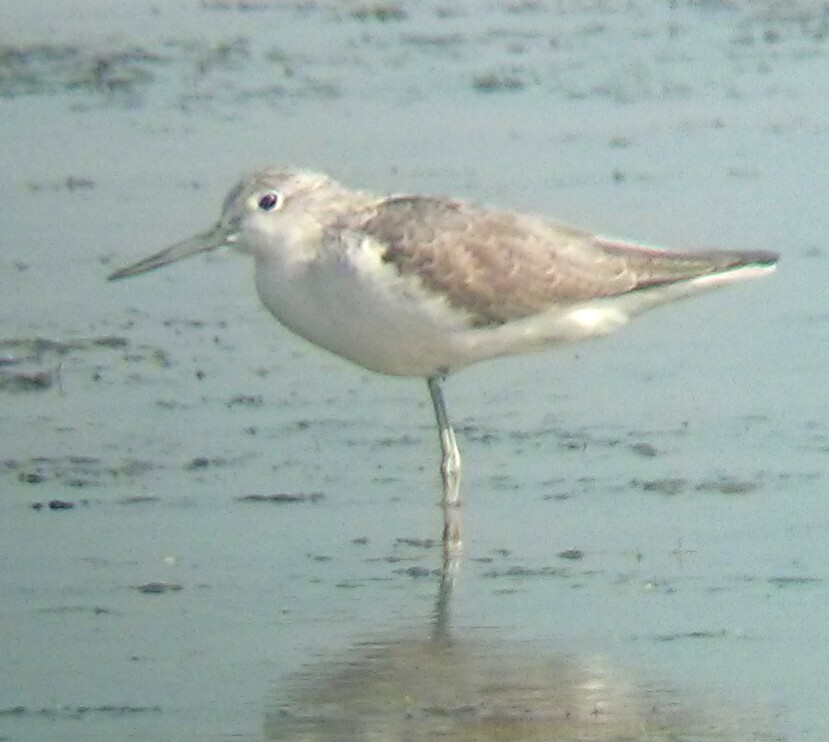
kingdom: Animalia
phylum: Chordata
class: Aves
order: Charadriiformes
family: Scolopacidae
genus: Tringa
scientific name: Tringa nebularia
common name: Common greenshank
